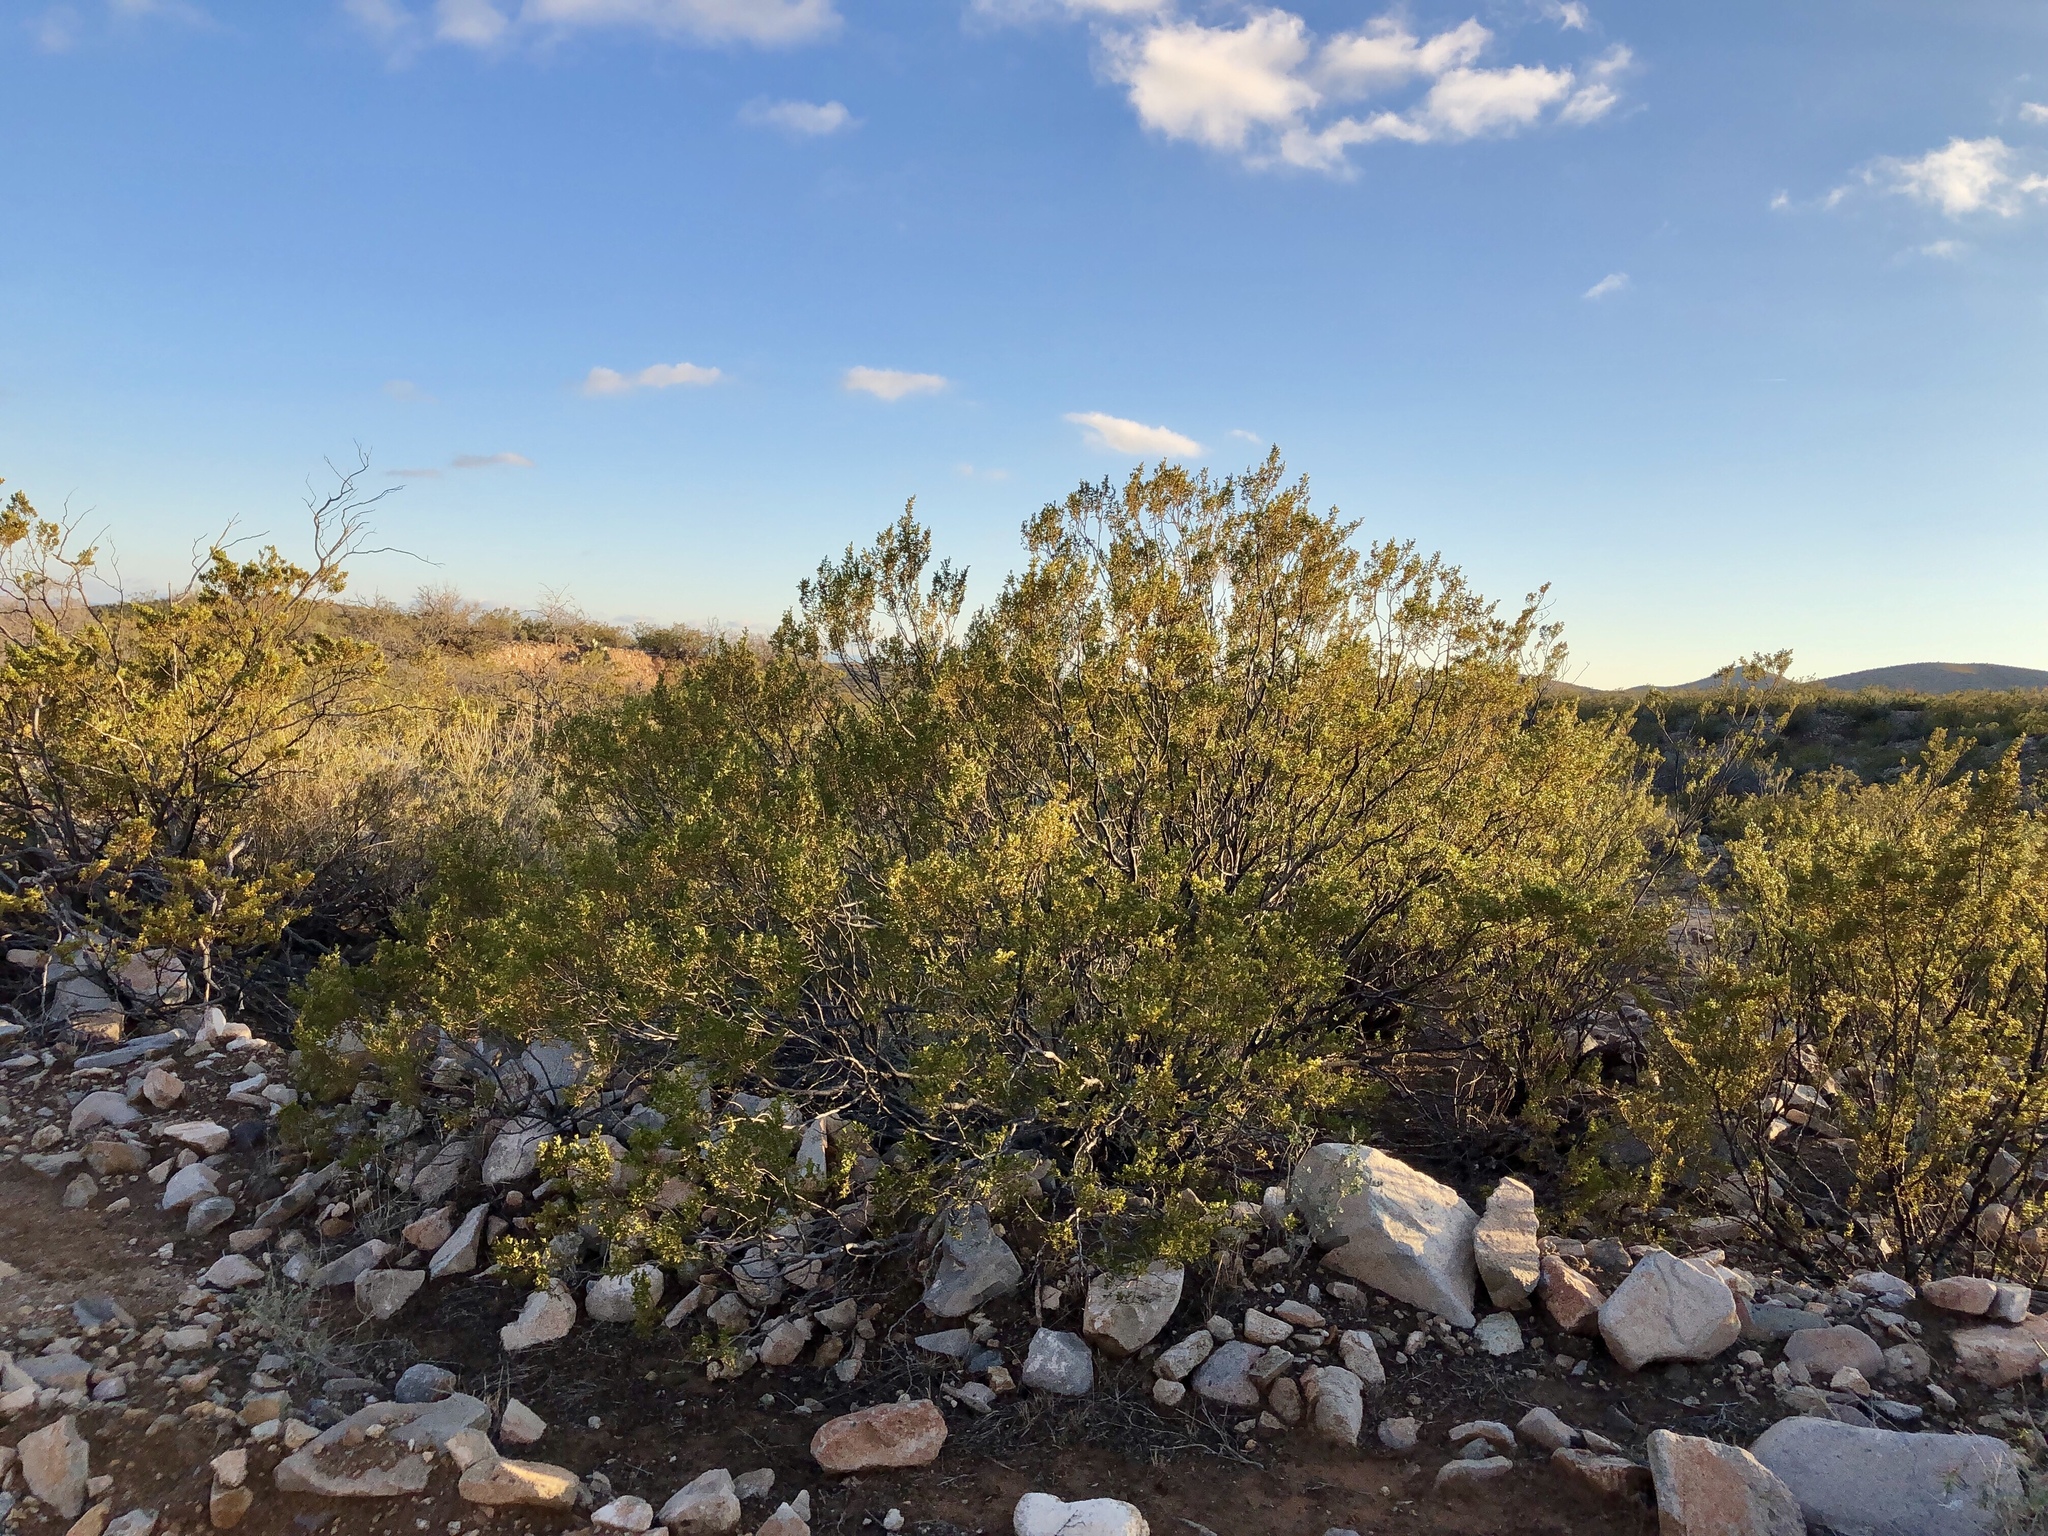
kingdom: Plantae
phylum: Tracheophyta
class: Magnoliopsida
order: Zygophyllales
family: Zygophyllaceae
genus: Larrea
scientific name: Larrea tridentata
